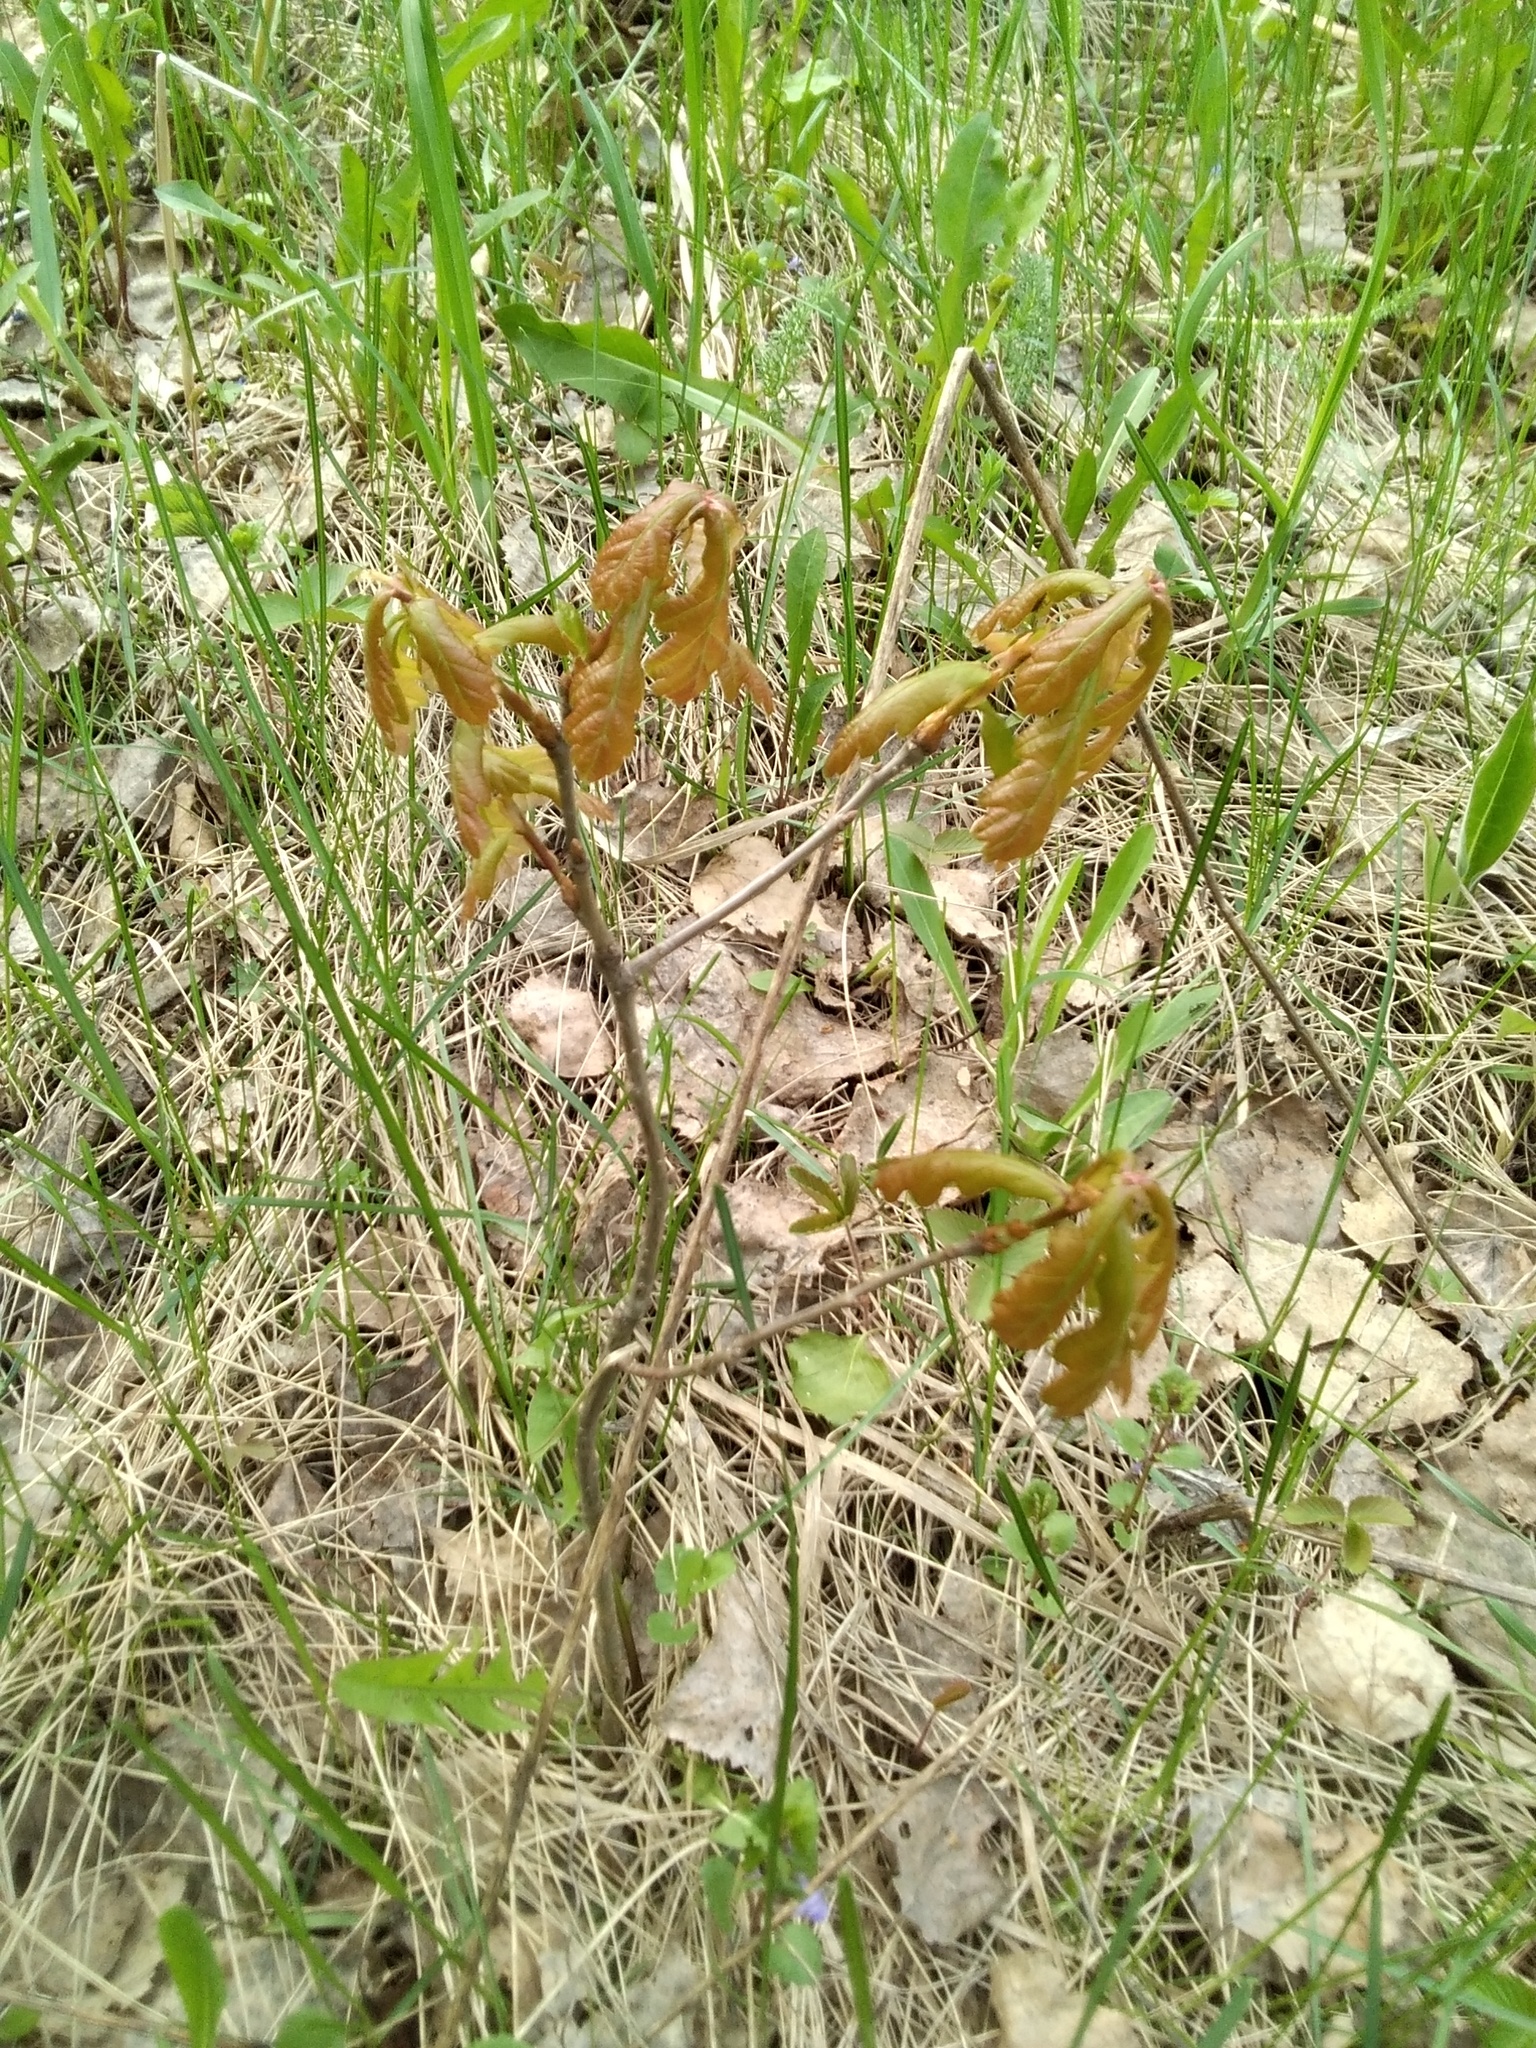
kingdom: Plantae
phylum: Tracheophyta
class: Magnoliopsida
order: Fagales
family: Fagaceae
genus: Quercus
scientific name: Quercus robur
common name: Pedunculate oak
